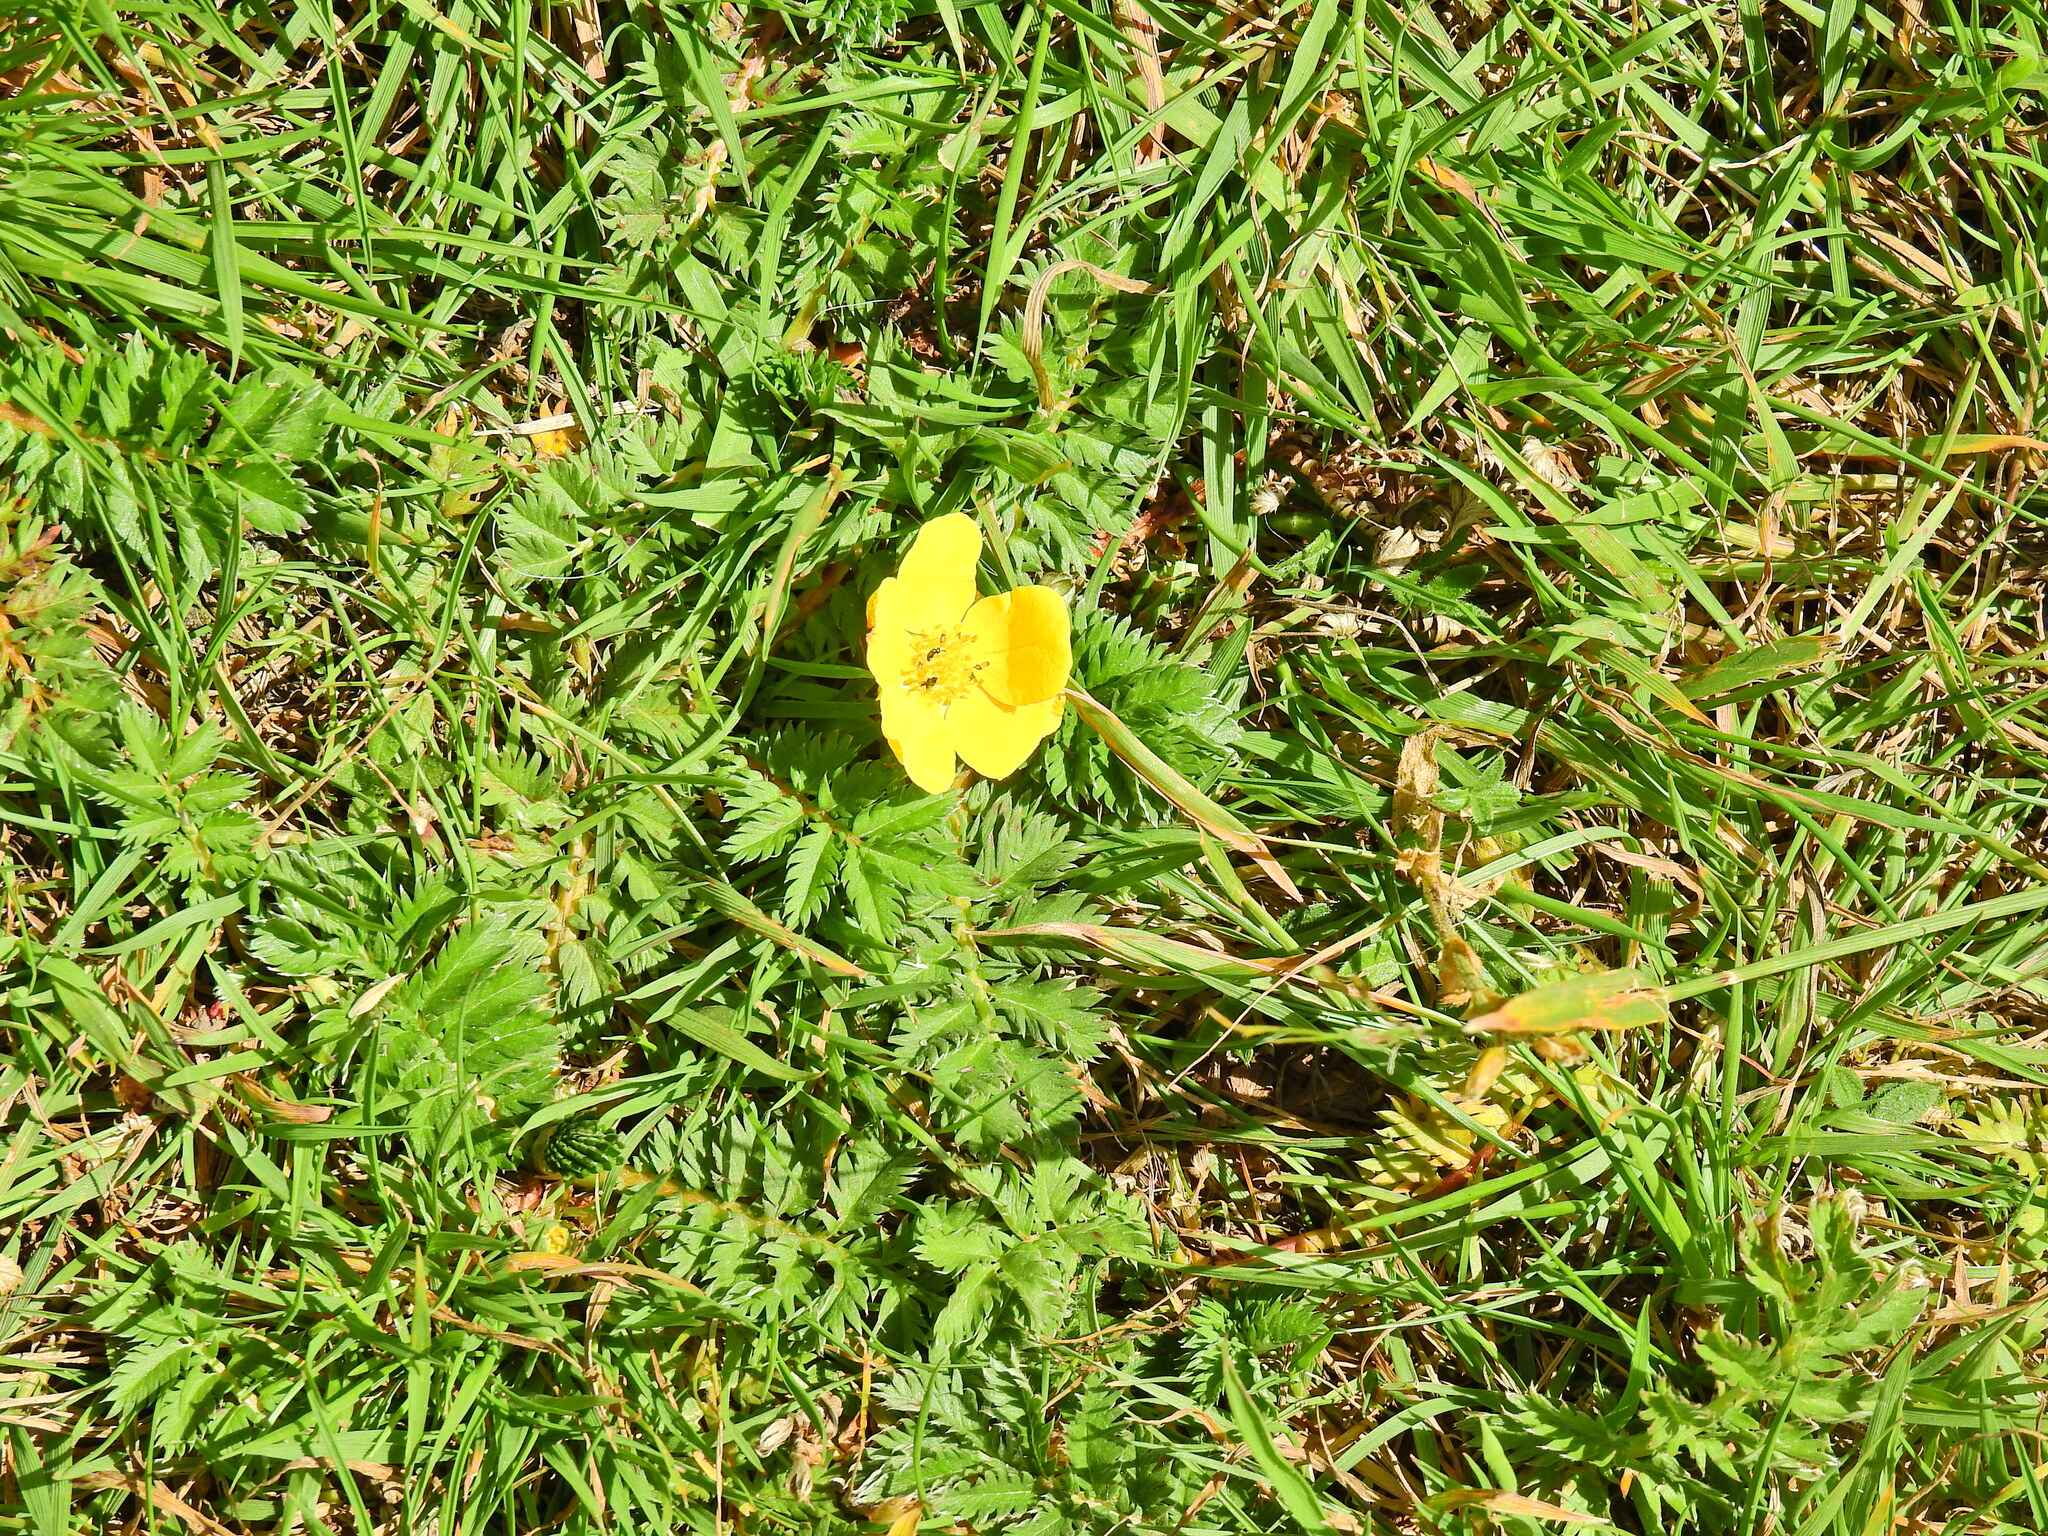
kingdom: Plantae
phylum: Tracheophyta
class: Magnoliopsida
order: Rosales
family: Rosaceae
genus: Argentina
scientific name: Argentina anserina
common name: Common silverweed
